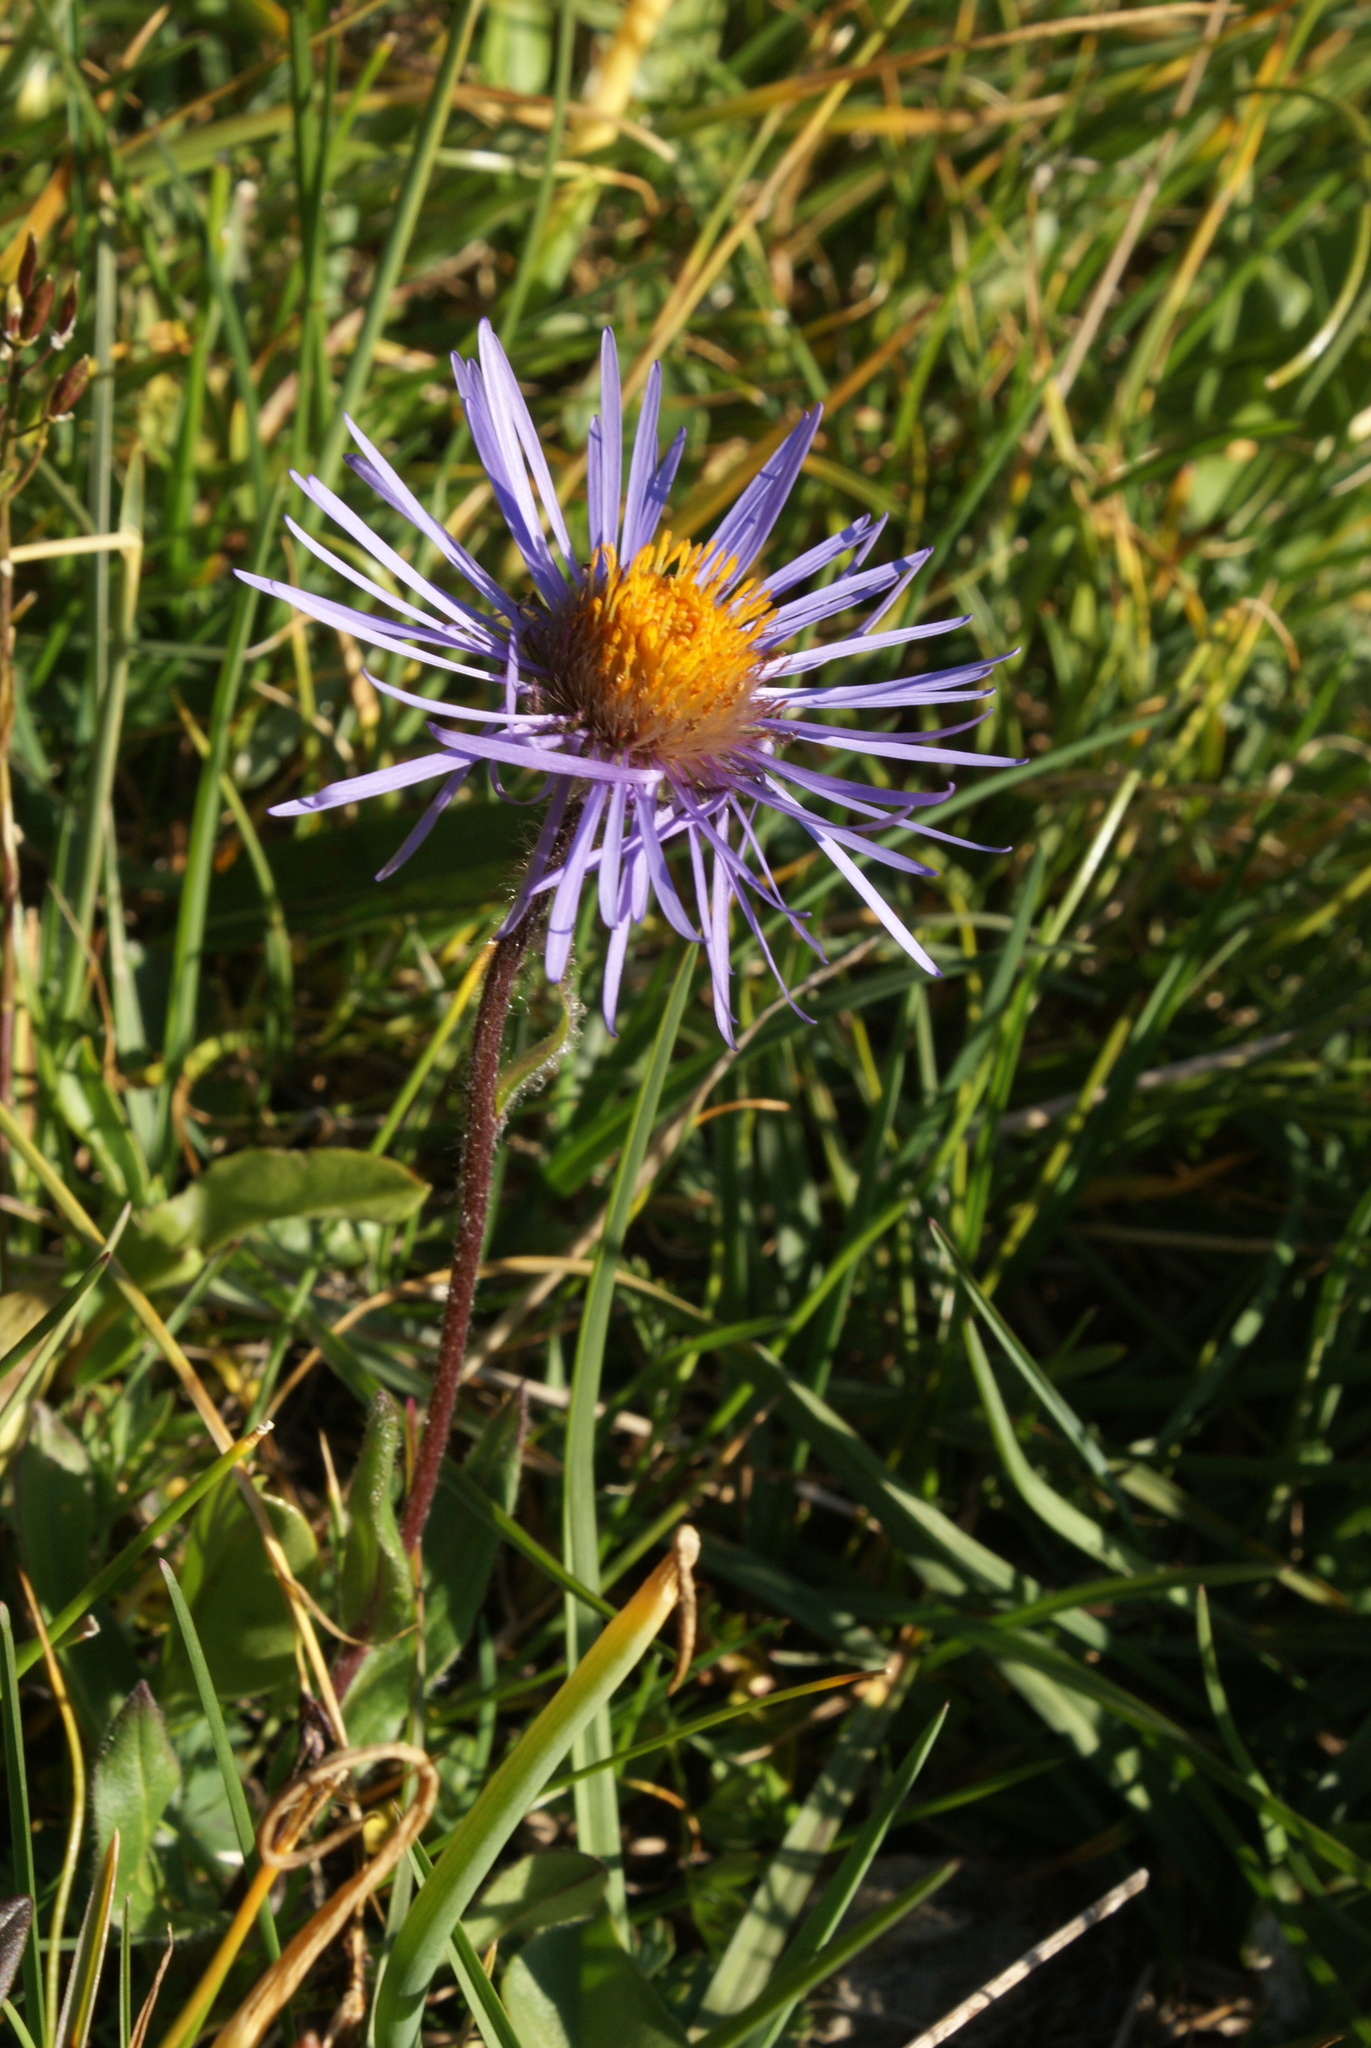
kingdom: Plantae
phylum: Tracheophyta
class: Magnoliopsida
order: Asterales
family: Asteraceae
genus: Tibetiodes
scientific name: Tibetiodes flaccida
